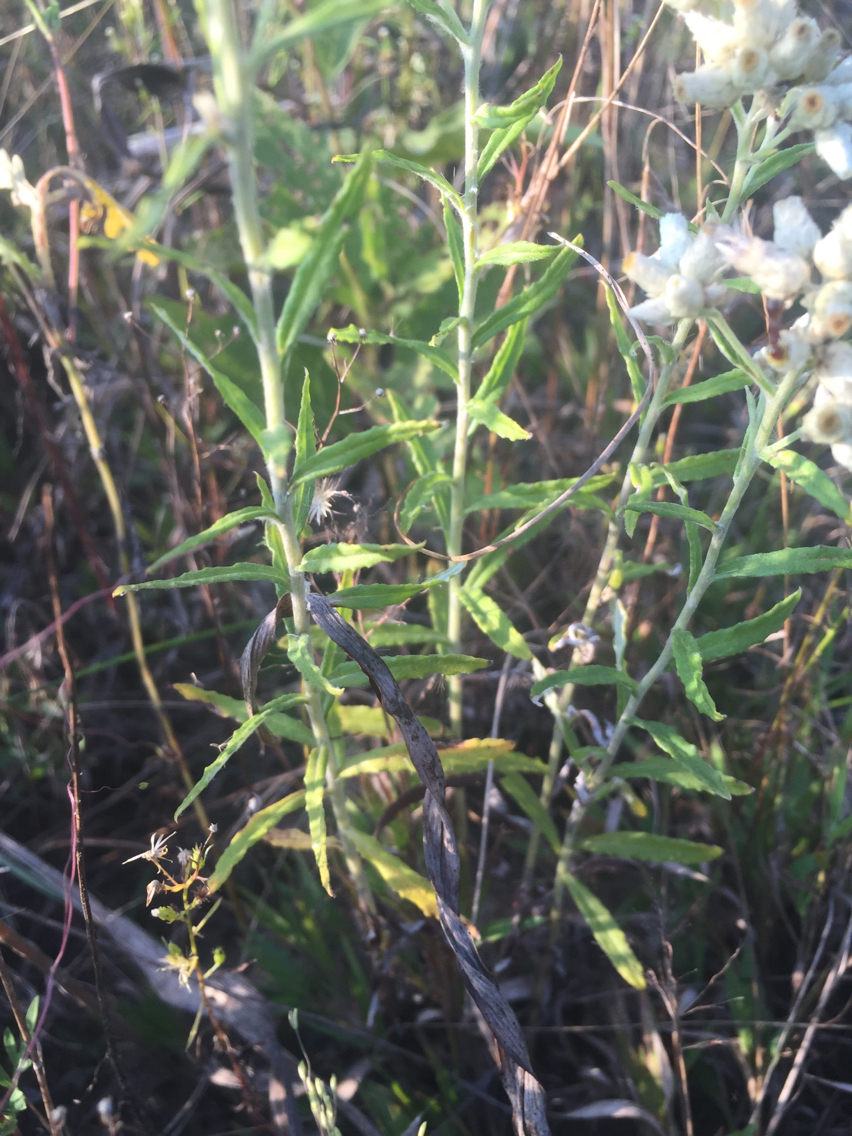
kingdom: Plantae
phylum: Tracheophyta
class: Magnoliopsida
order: Asterales
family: Asteraceae
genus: Pseudognaphalium
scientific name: Pseudognaphalium obtusifolium
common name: Eastern rabbit-tobacco
